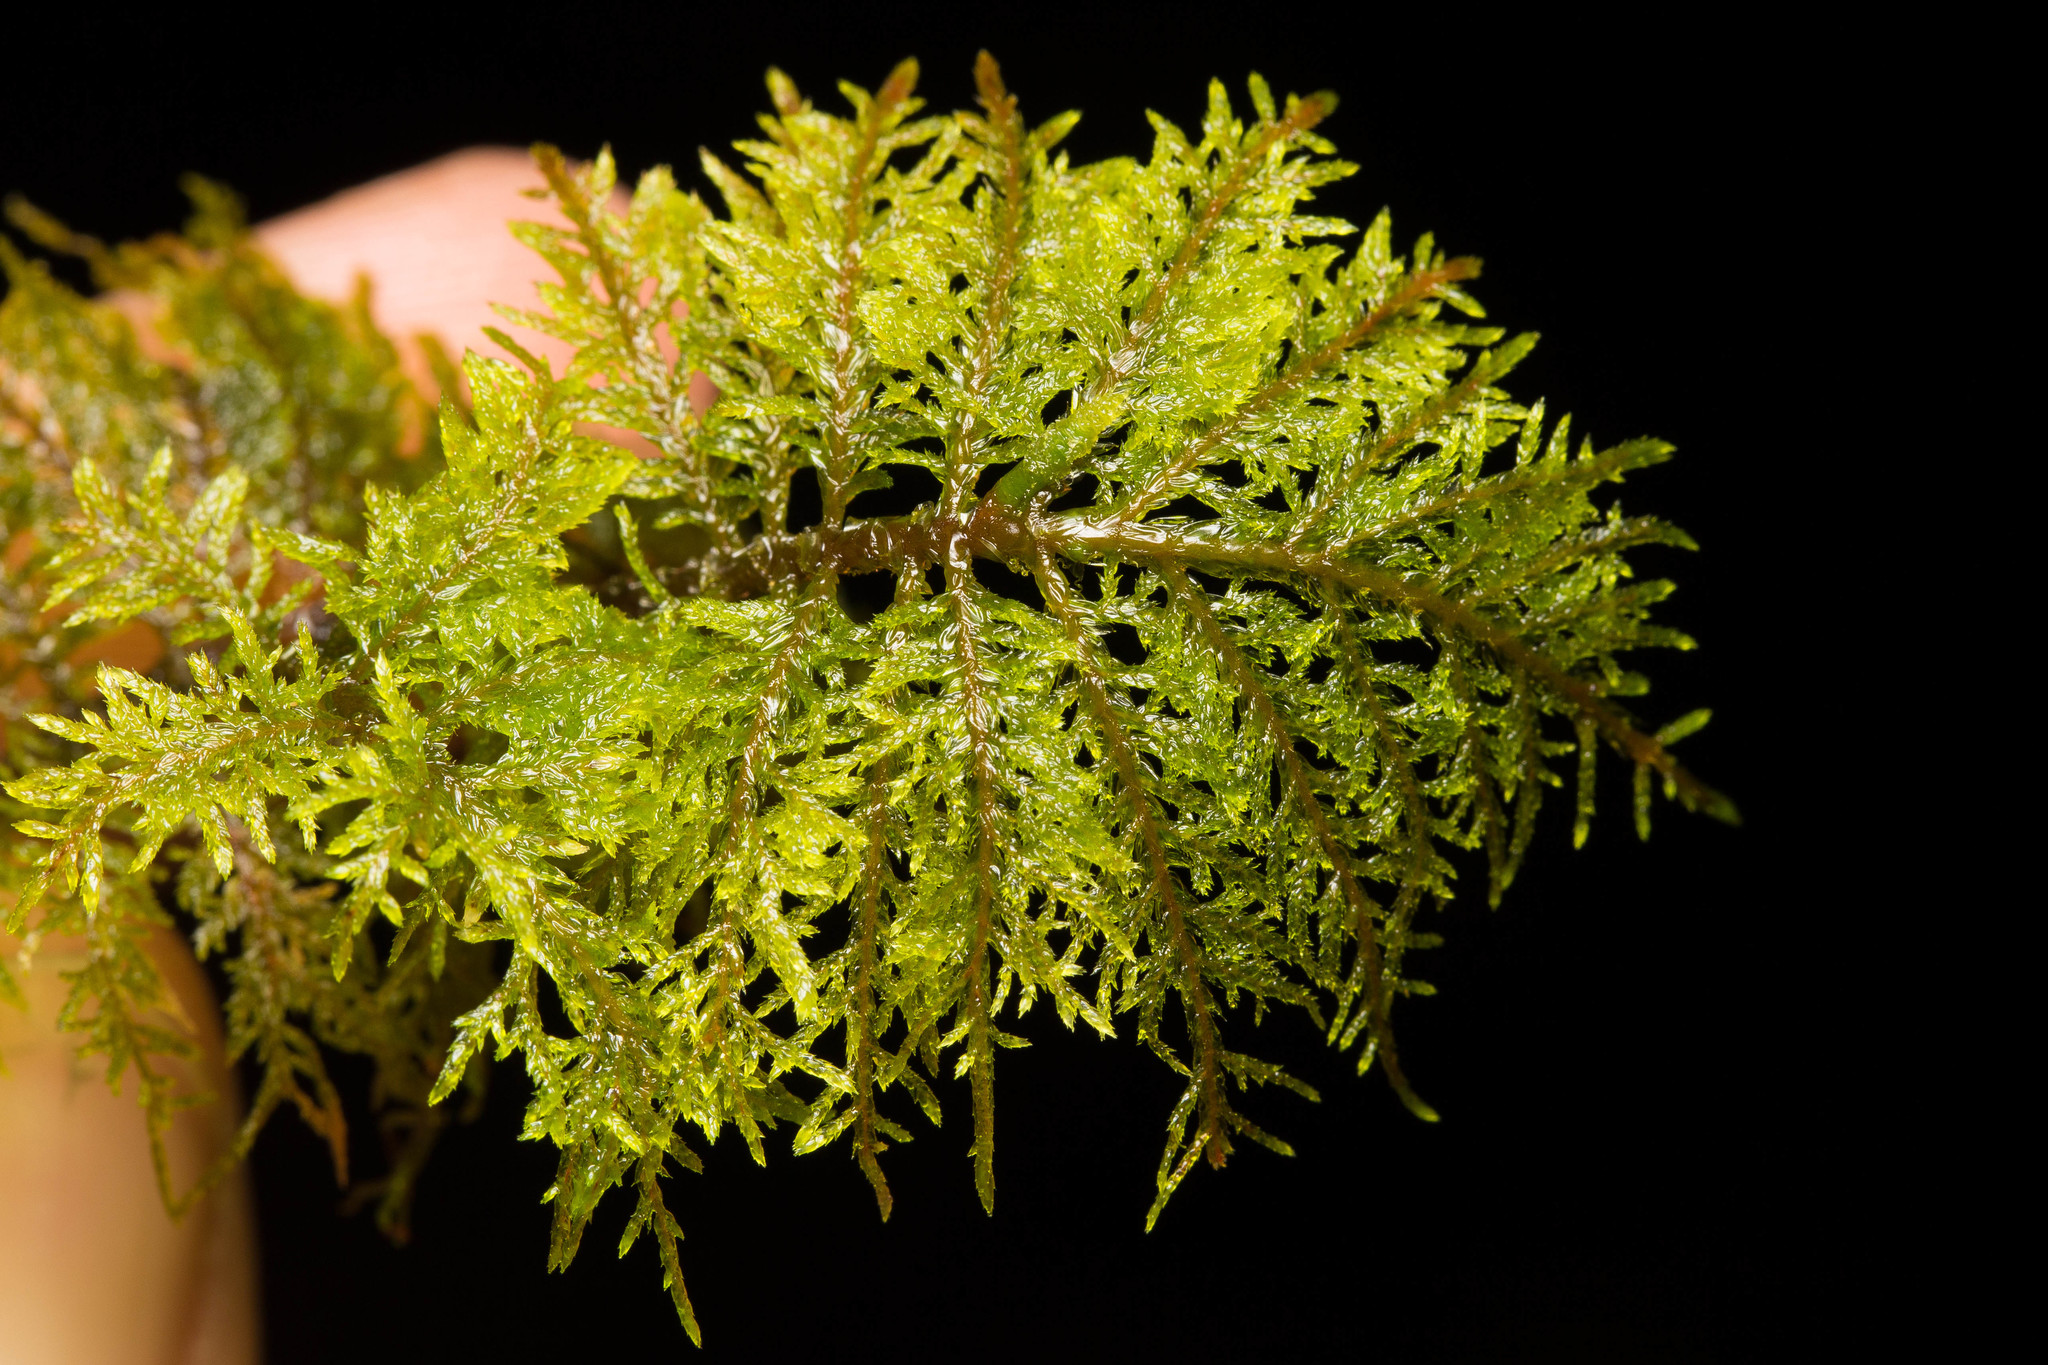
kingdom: Plantae
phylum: Bryophyta
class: Bryopsida
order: Hypnales
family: Hylocomiaceae
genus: Hylocomium
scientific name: Hylocomium splendens
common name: Stairstep moss
